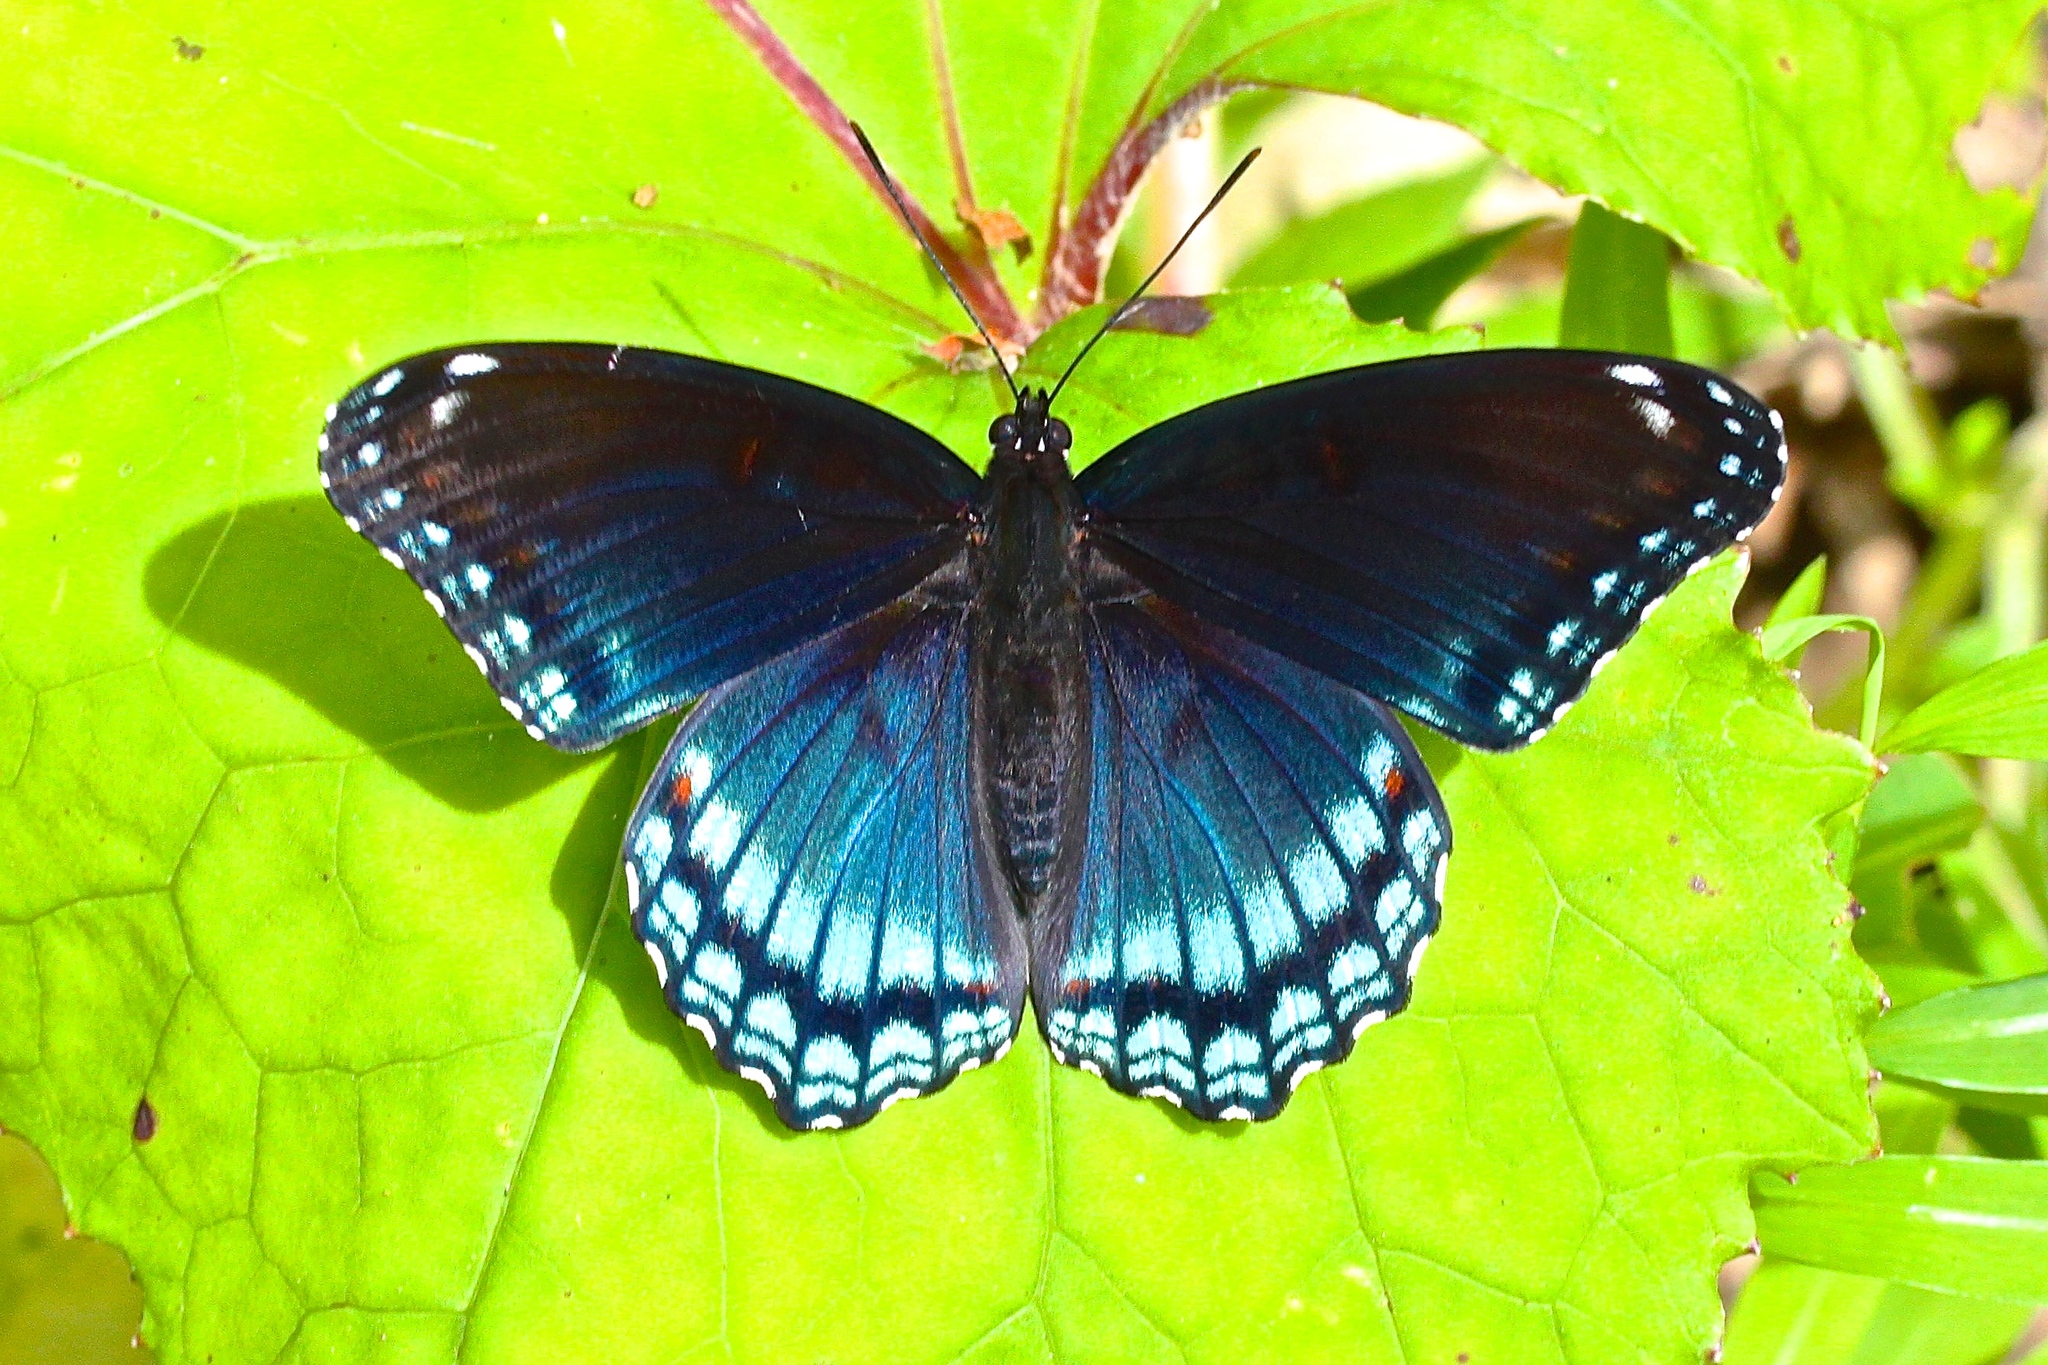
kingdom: Animalia
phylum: Arthropoda
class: Insecta
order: Lepidoptera
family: Nymphalidae
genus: Limenitis
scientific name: Limenitis astyanax
